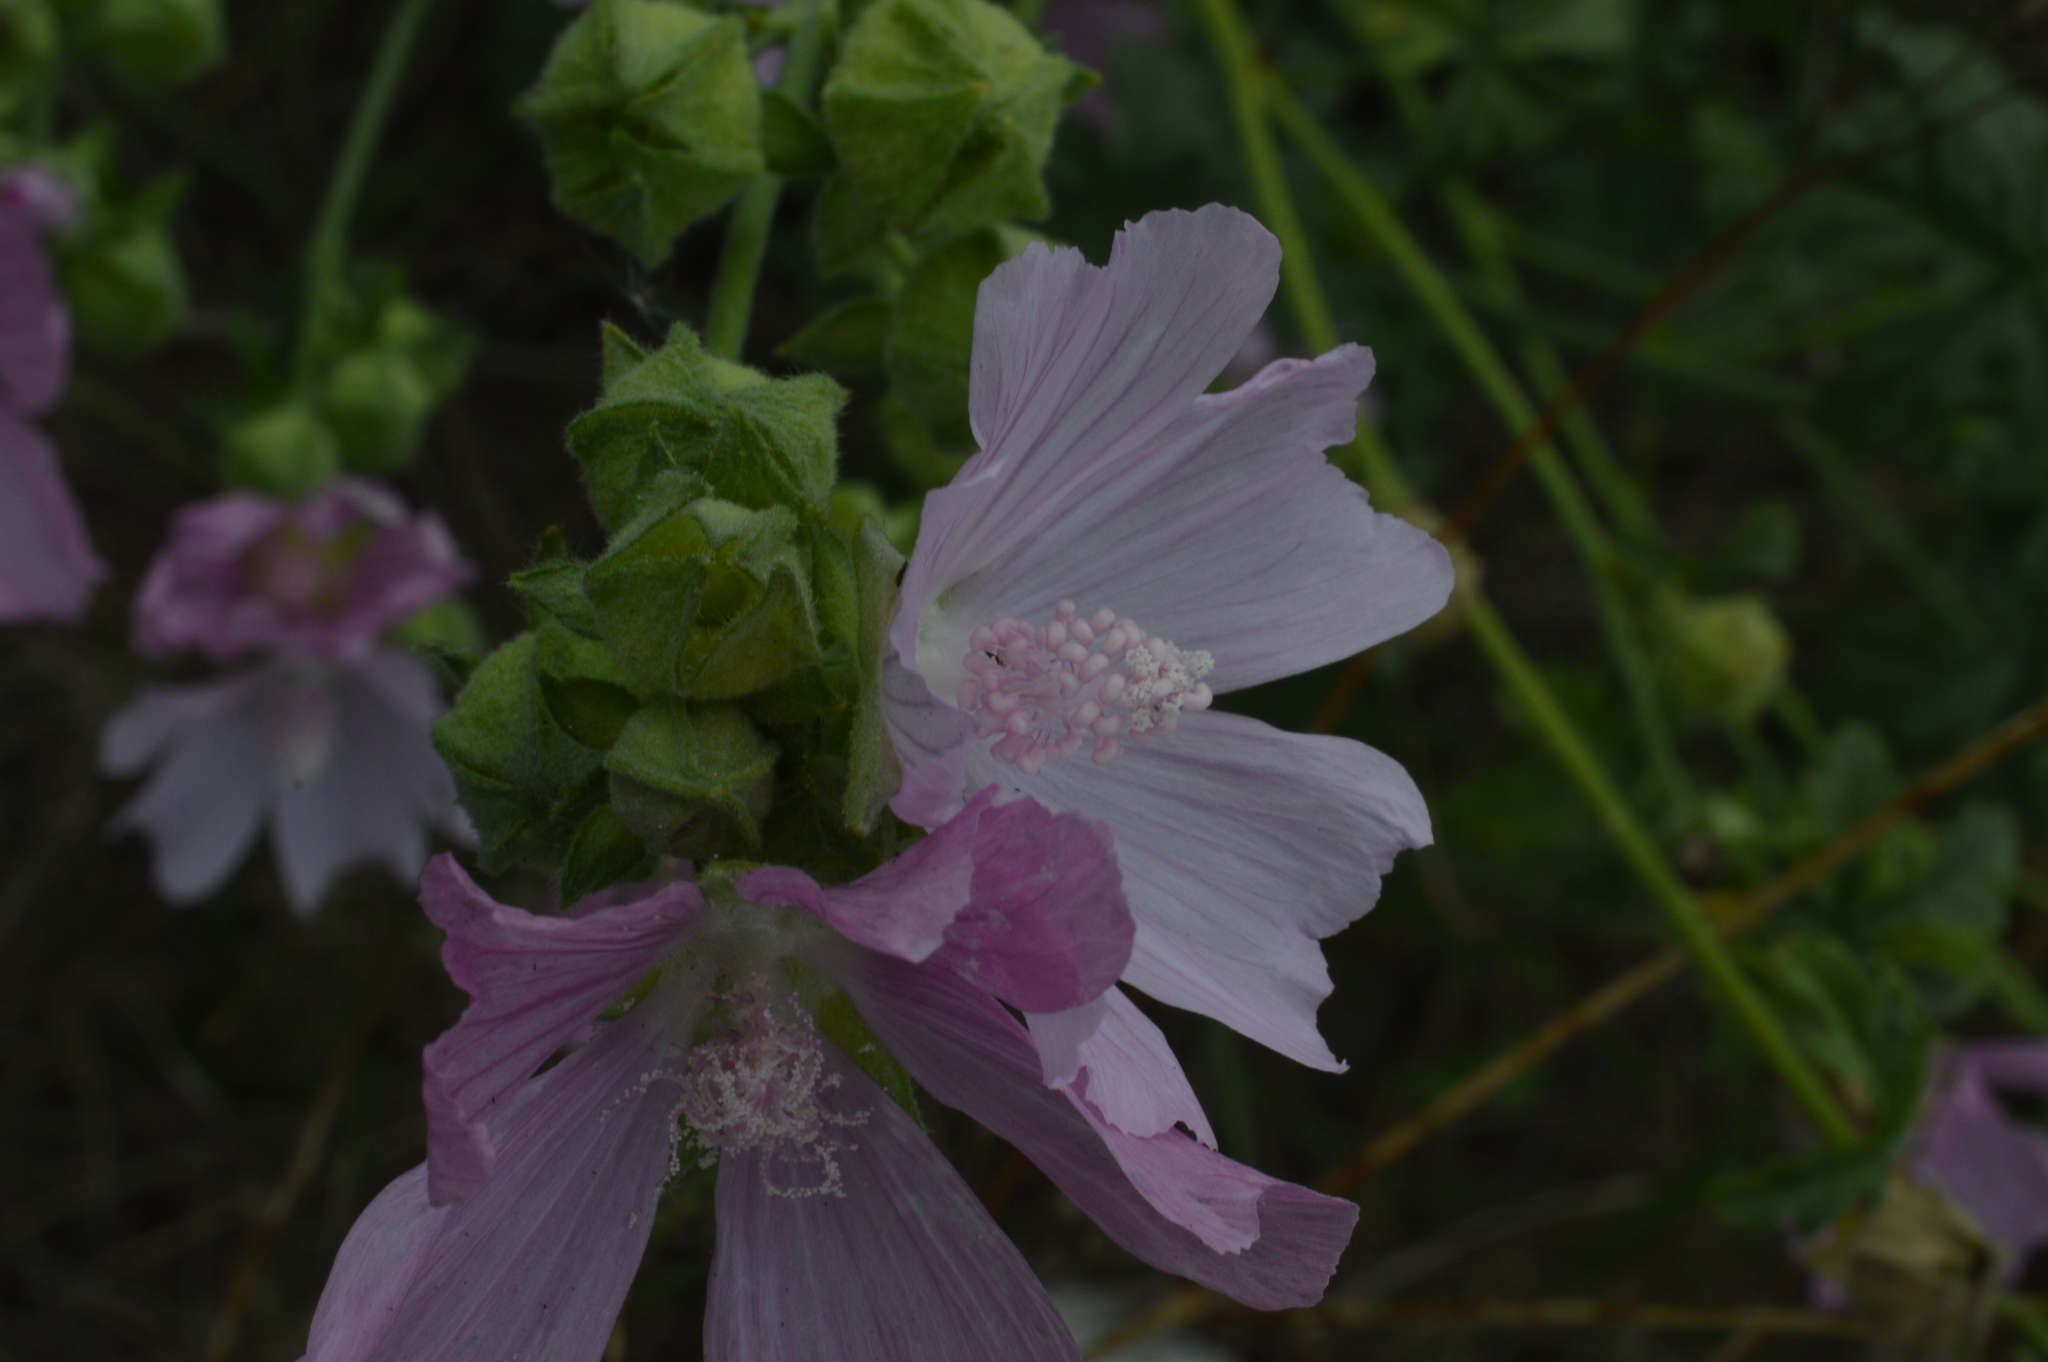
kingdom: Plantae
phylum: Tracheophyta
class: Magnoliopsida
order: Malvales
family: Malvaceae
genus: Malva
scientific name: Malva alcea
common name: Greater musk-mallow
